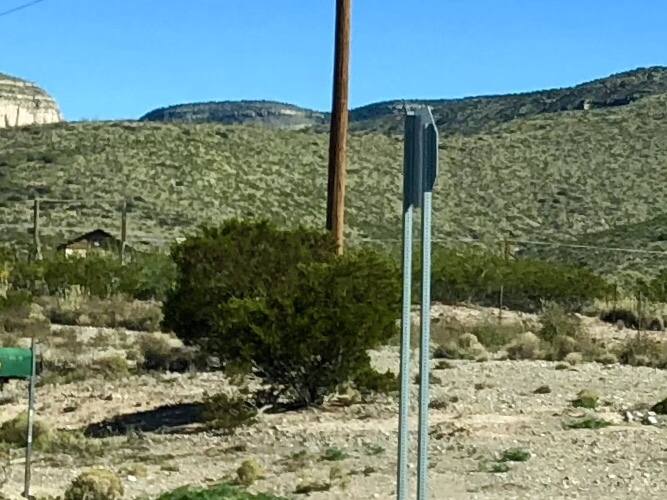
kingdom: Plantae
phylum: Tracheophyta
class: Magnoliopsida
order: Zygophyllales
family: Zygophyllaceae
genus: Larrea
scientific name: Larrea tridentata
